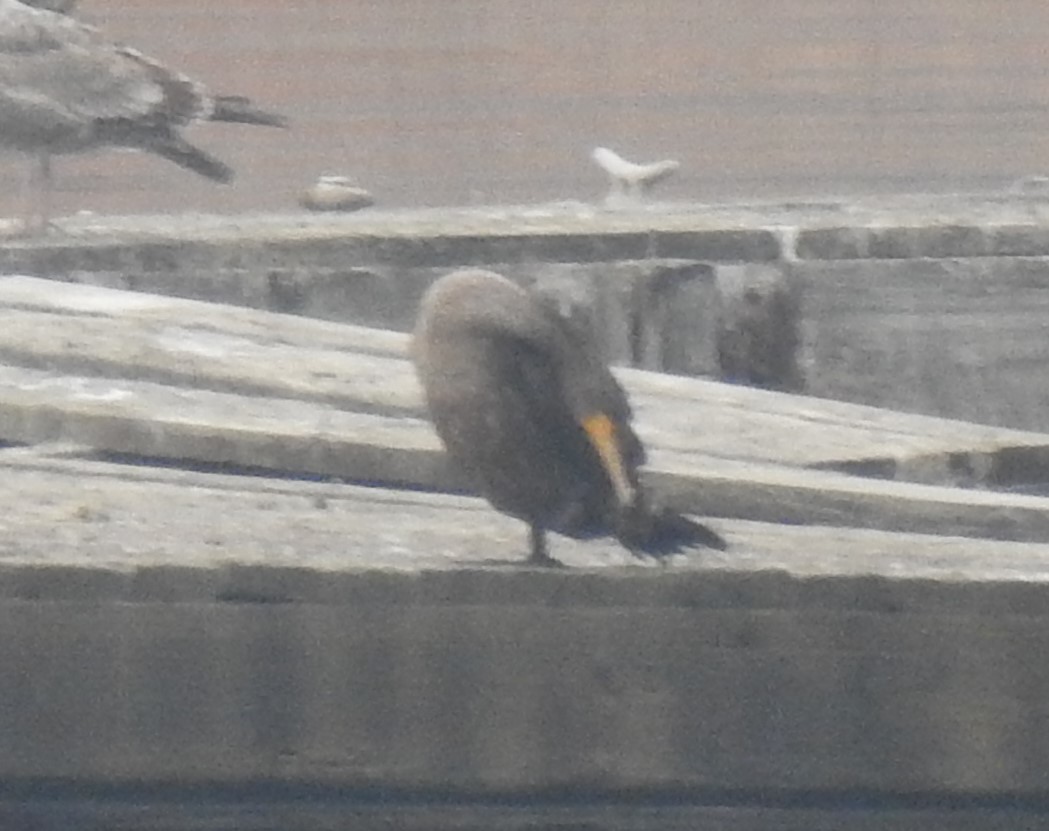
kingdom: Animalia
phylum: Chordata
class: Aves
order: Suliformes
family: Phalacrocoracidae
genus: Phalacrocorax
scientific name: Phalacrocorax auritus
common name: Double-crested cormorant
